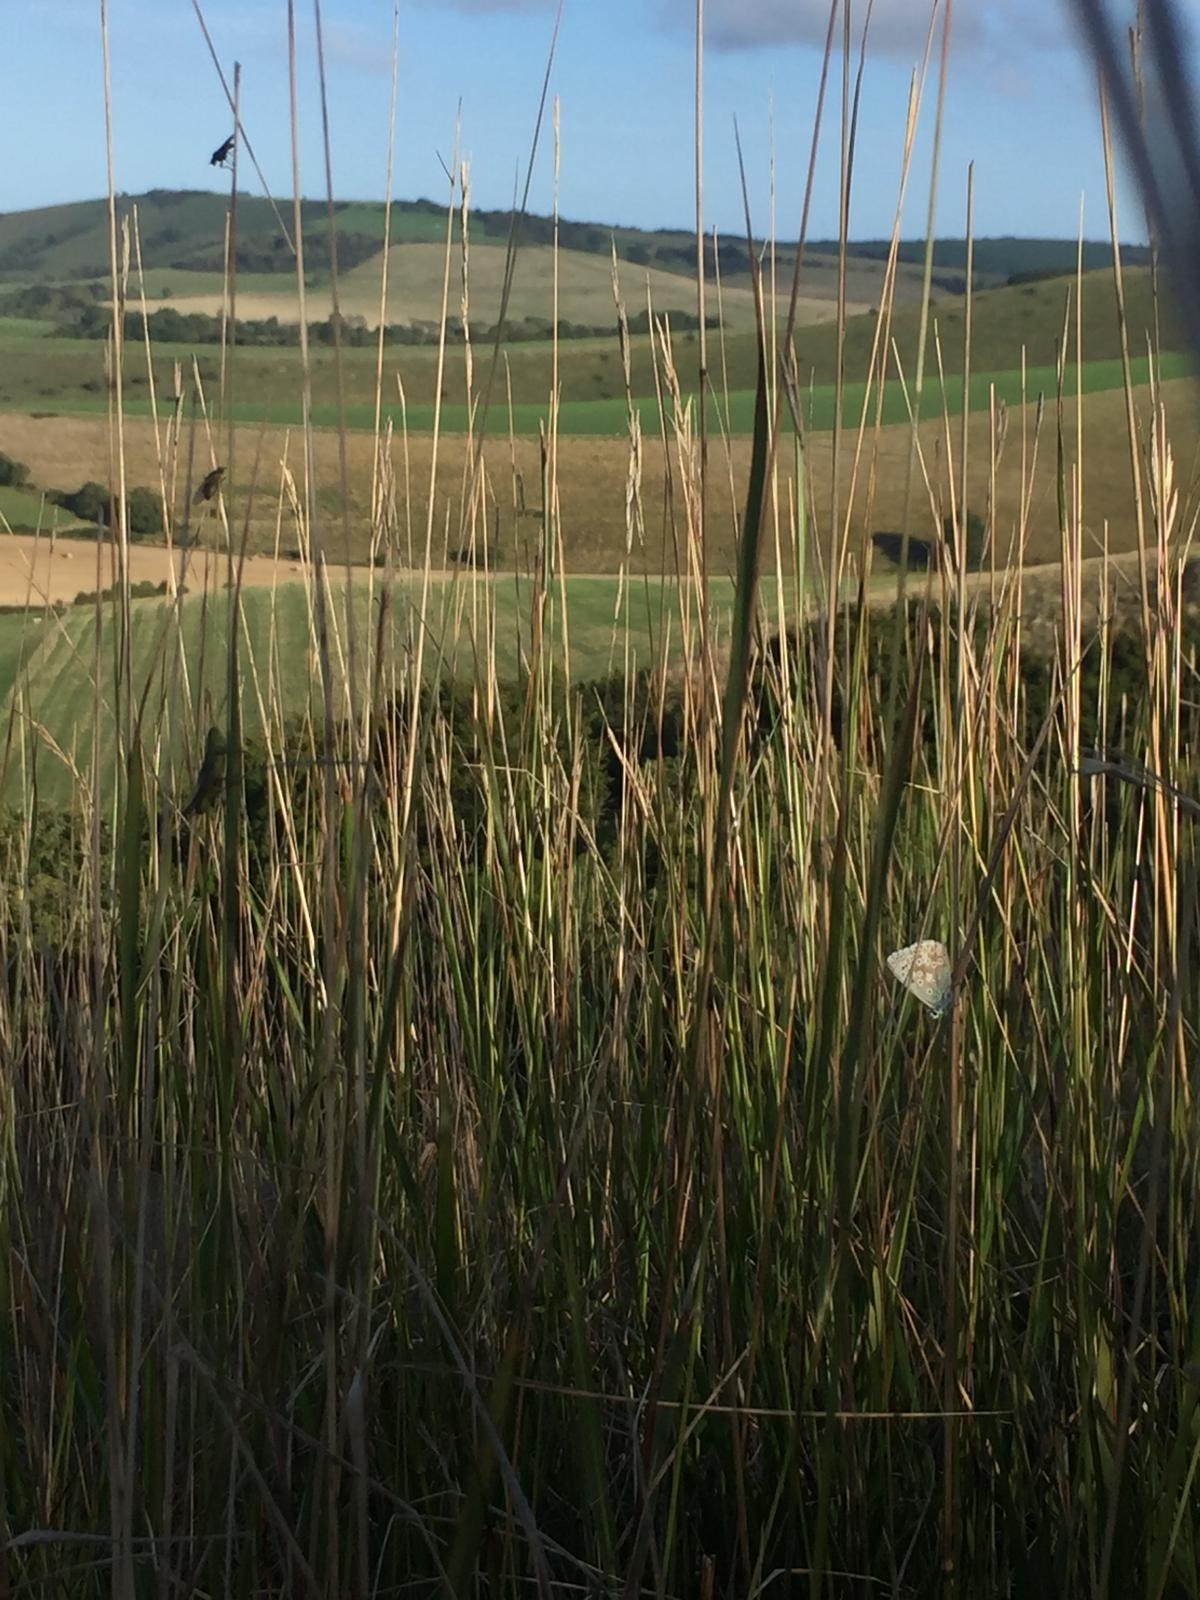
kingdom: Animalia
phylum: Arthropoda
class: Insecta
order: Lepidoptera
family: Lycaenidae
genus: Lysandra
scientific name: Lysandra coridon
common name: Chalkhill blue
